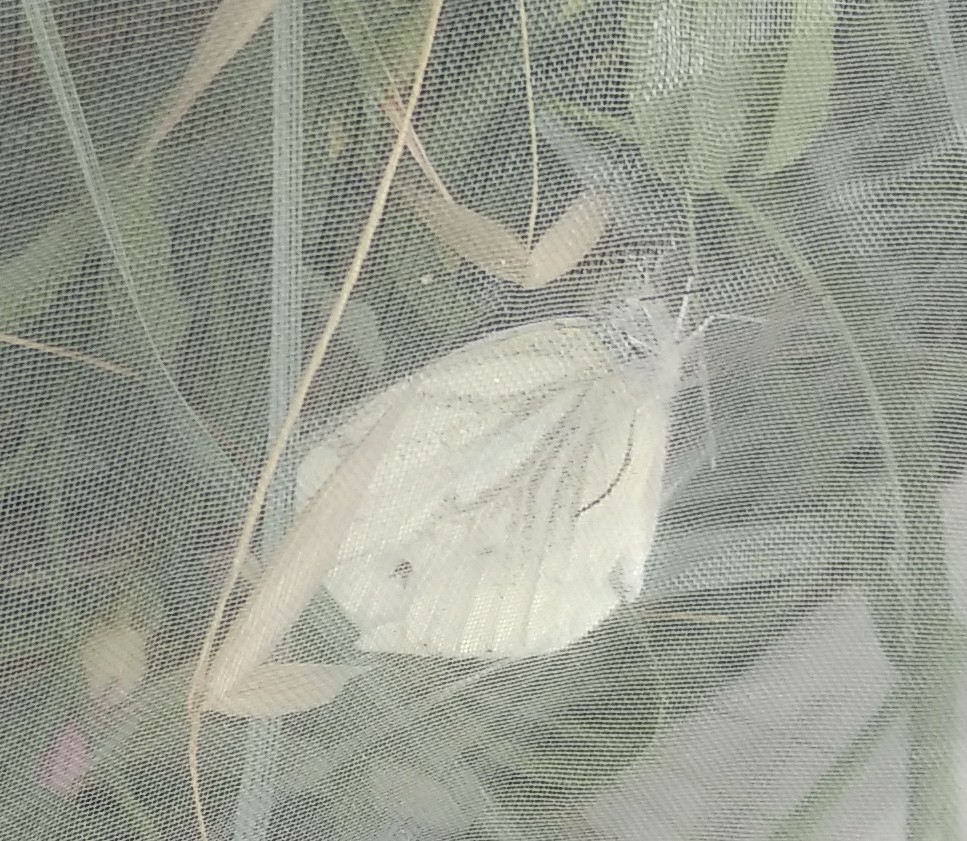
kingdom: Animalia
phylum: Arthropoda
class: Insecta
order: Lepidoptera
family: Pieridae
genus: Pieris
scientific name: Pieris napi
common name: Green-veined white
